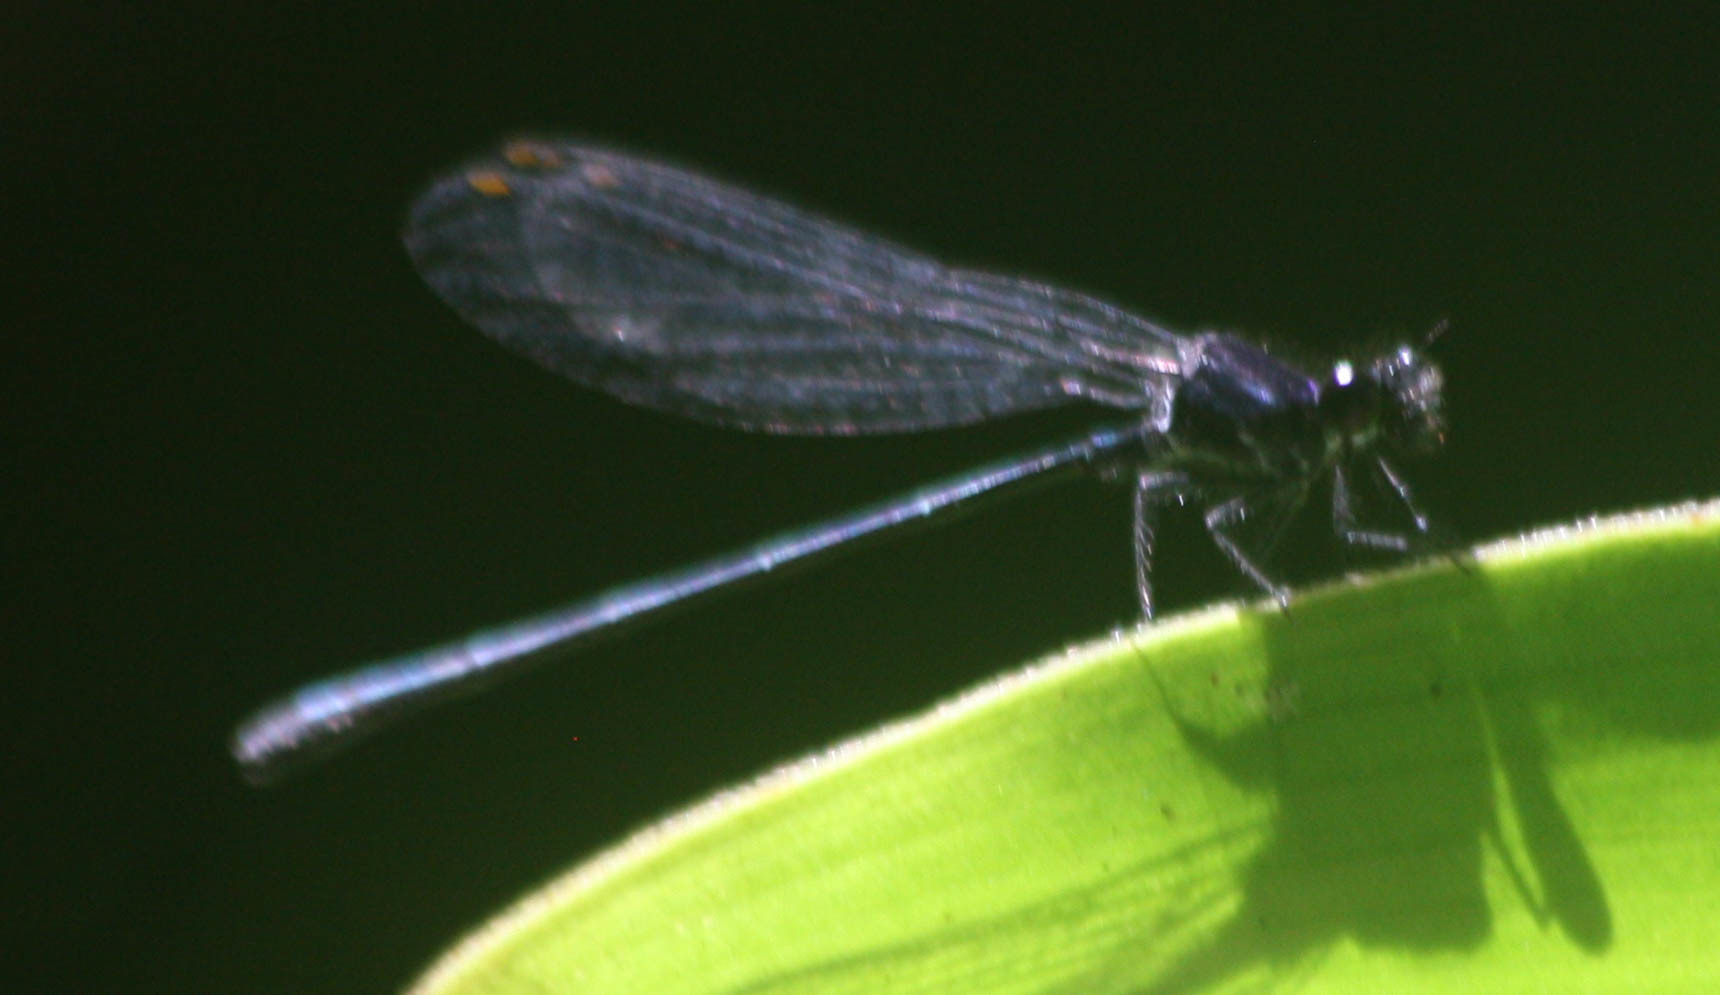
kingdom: Animalia
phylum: Arthropoda
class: Insecta
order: Odonata
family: Platycnemididae
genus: Onychargia
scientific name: Onychargia atrocyana
